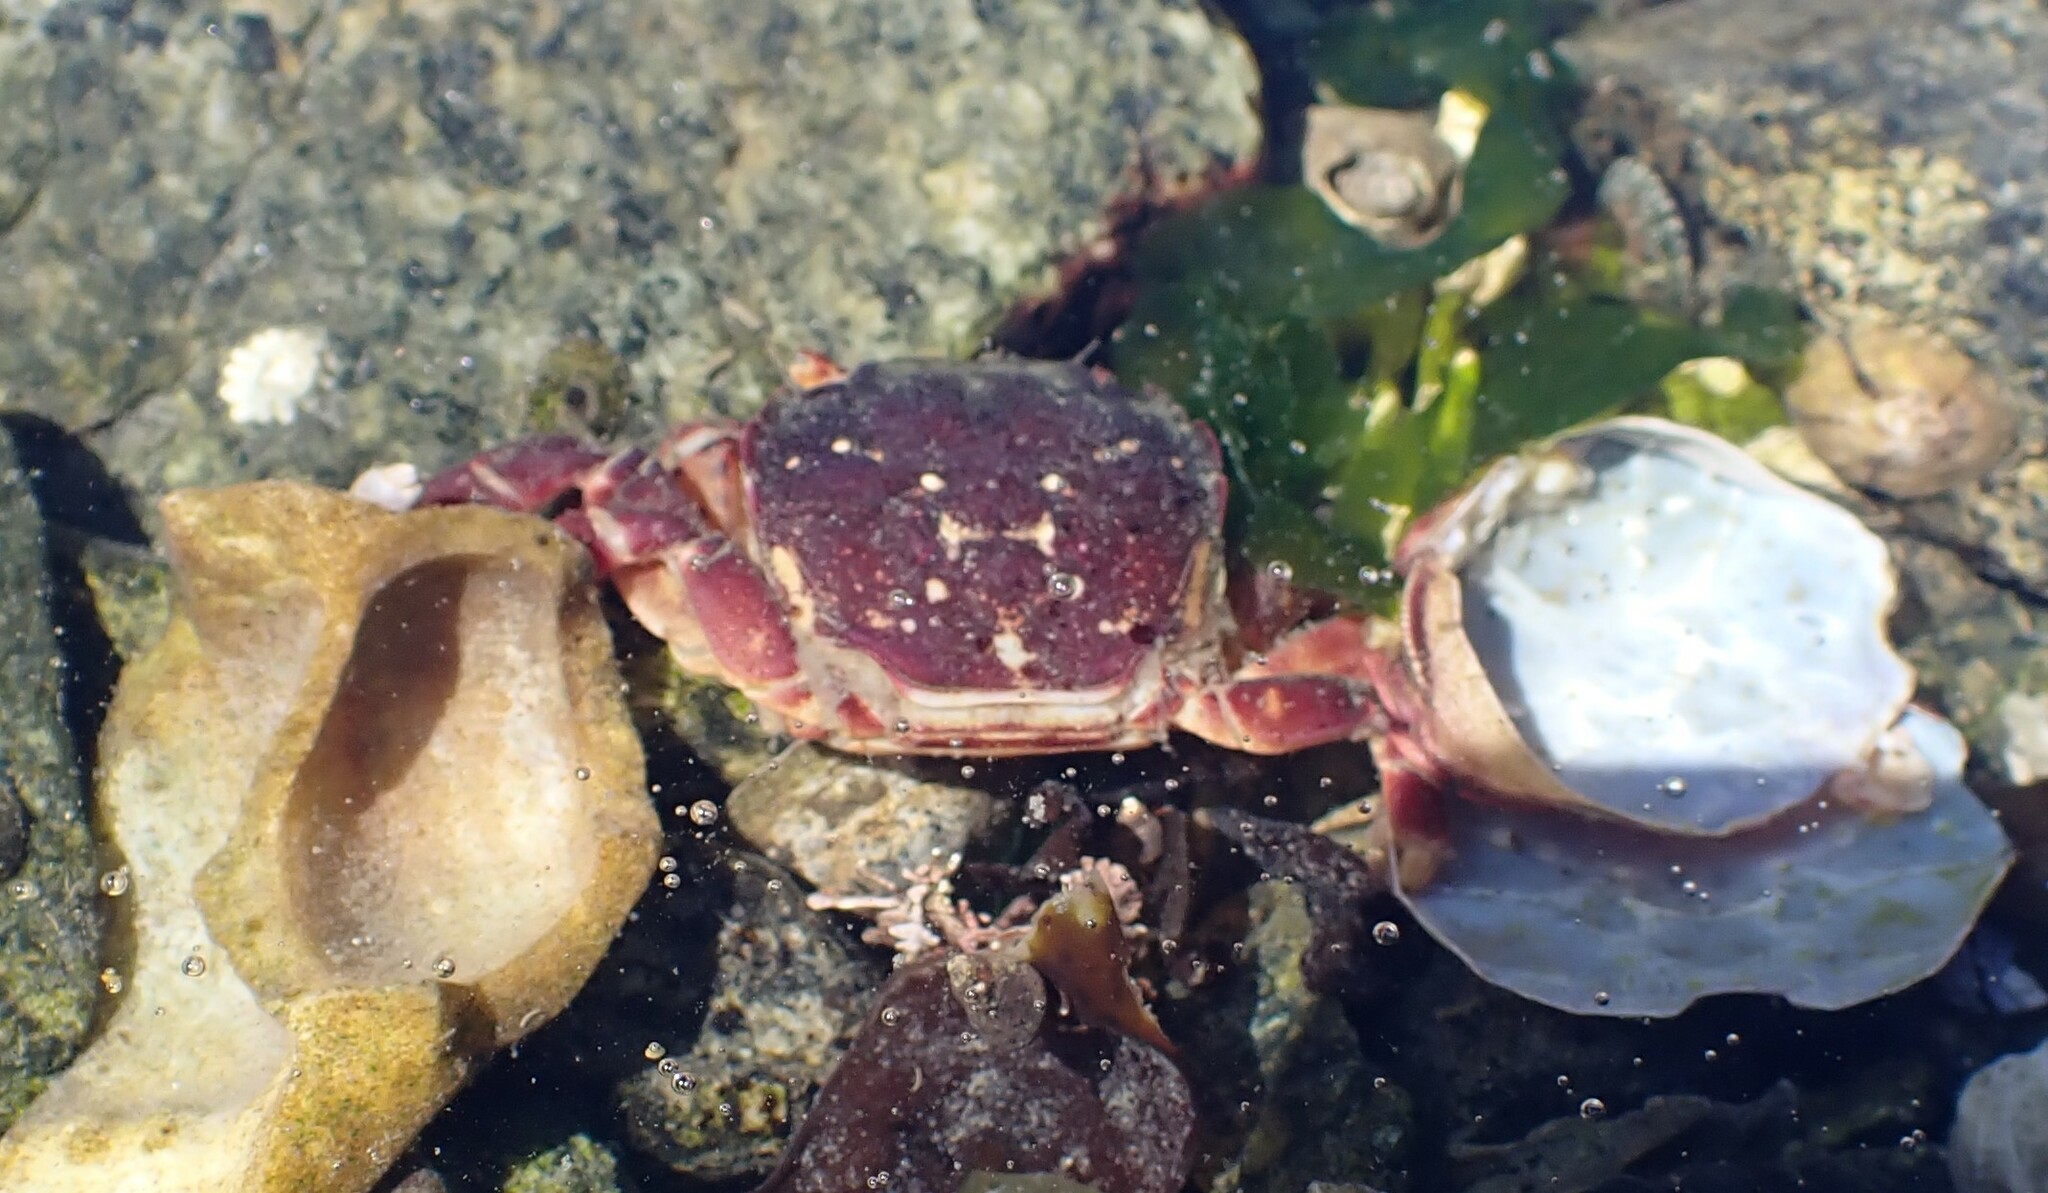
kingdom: Animalia
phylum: Arthropoda
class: Malacostraca
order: Decapoda
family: Varunidae
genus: Hemigrapsus
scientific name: Hemigrapsus nudus
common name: Purple shore crab
